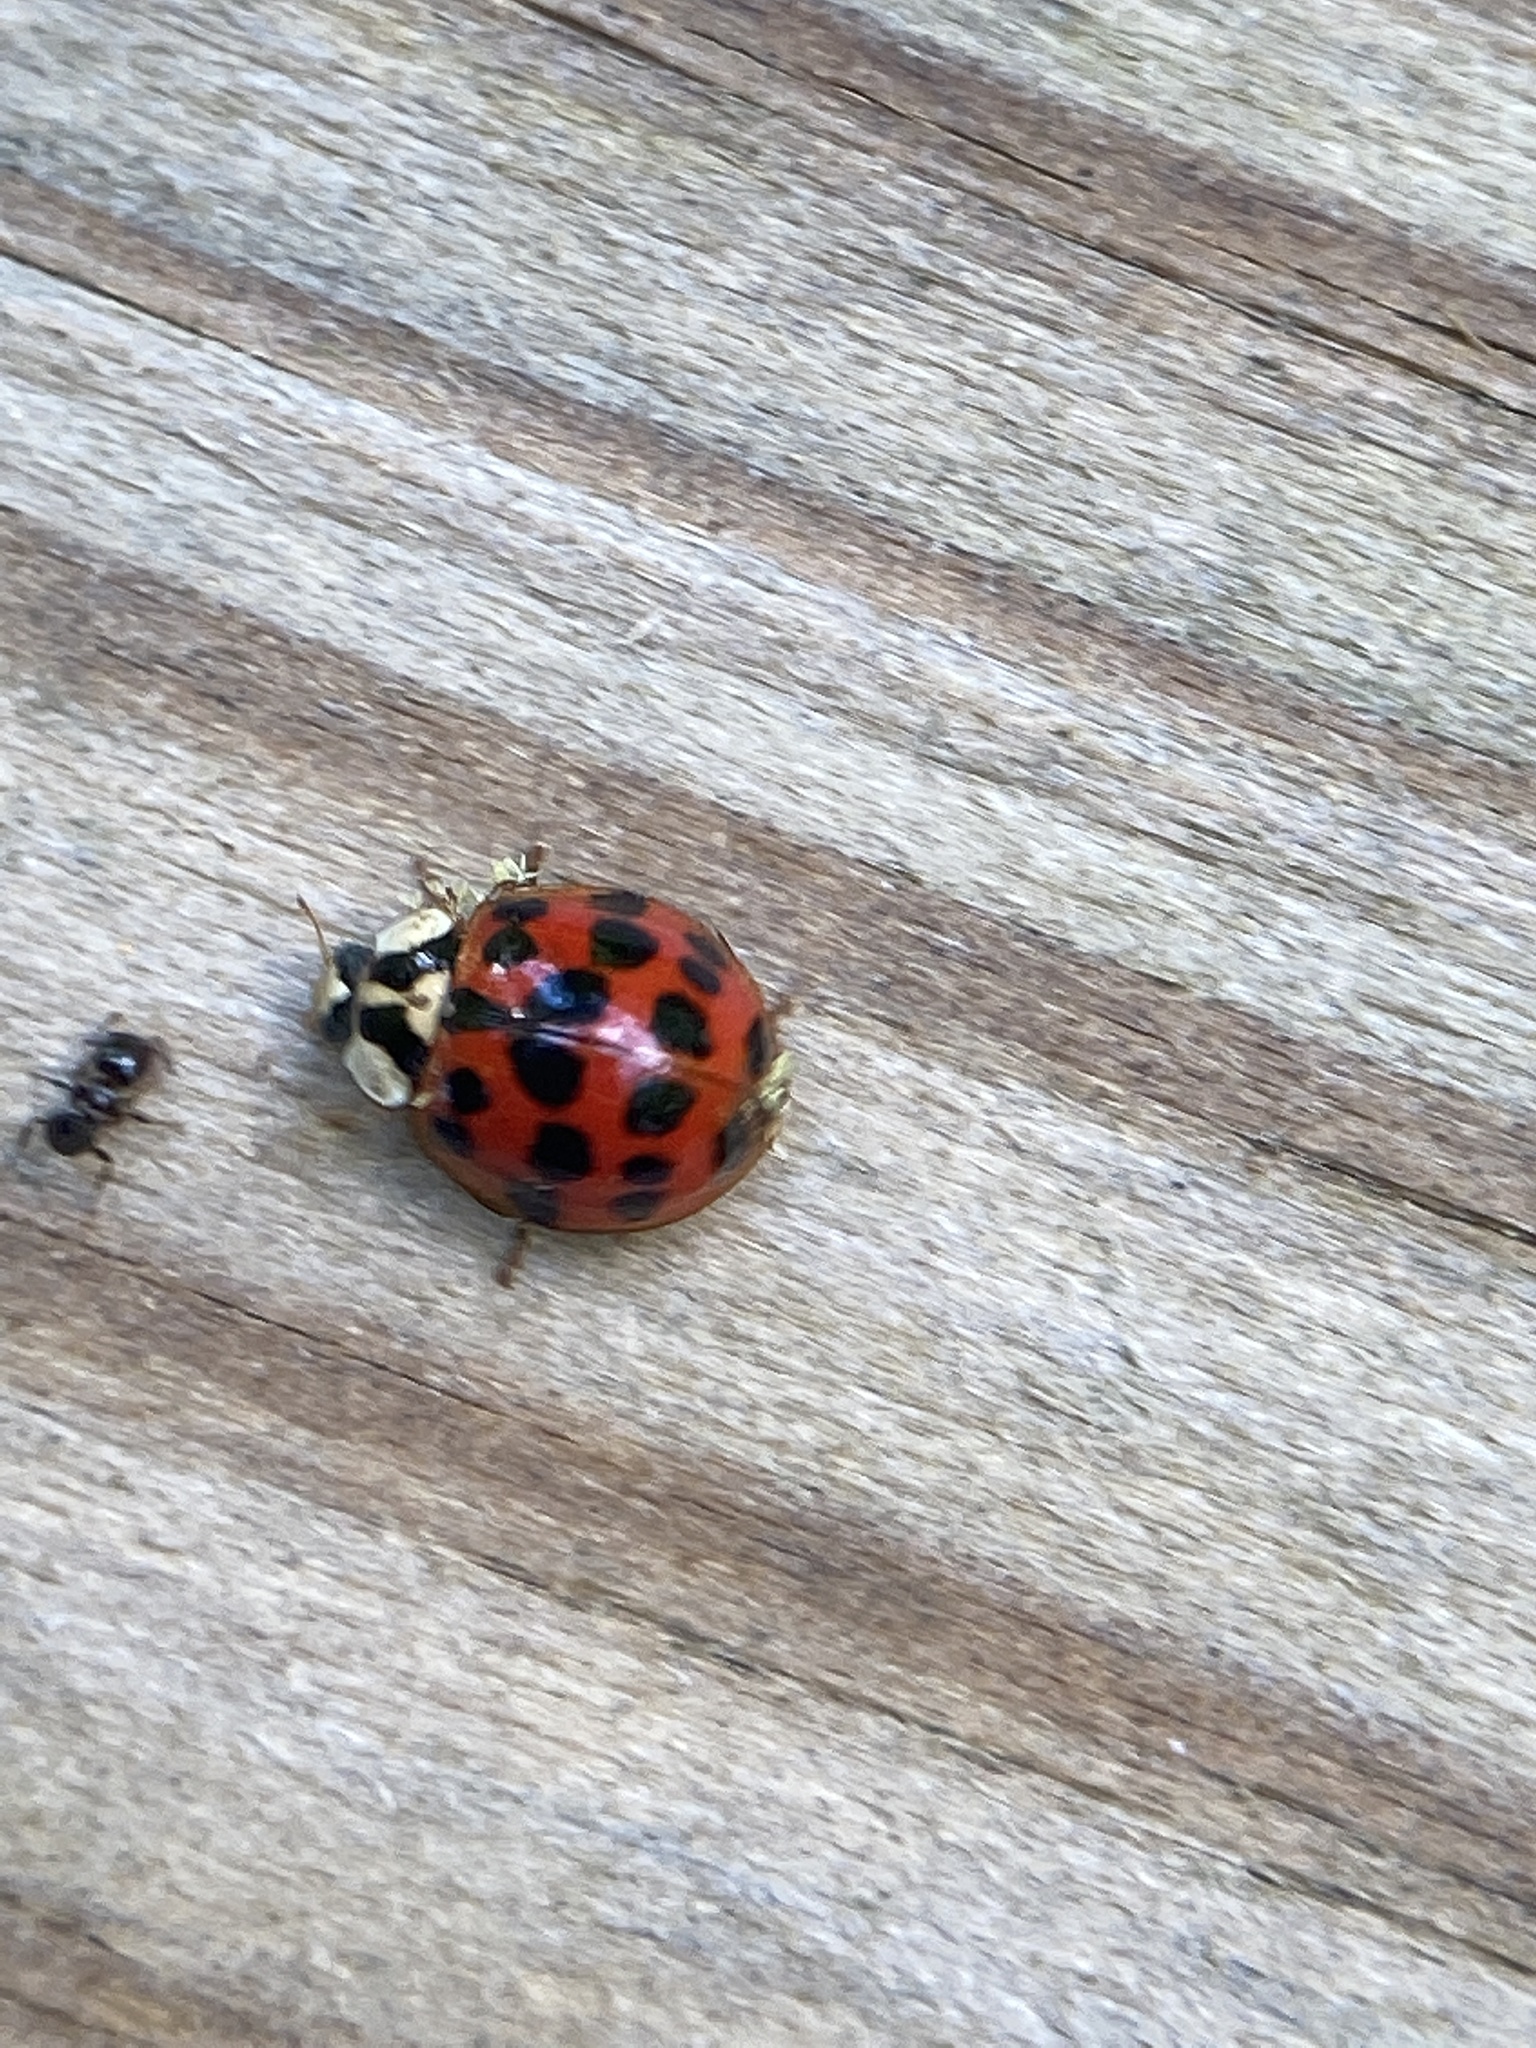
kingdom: Animalia
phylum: Arthropoda
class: Insecta
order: Coleoptera
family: Coccinellidae
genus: Harmonia
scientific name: Harmonia axyridis
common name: Harlequin ladybird
